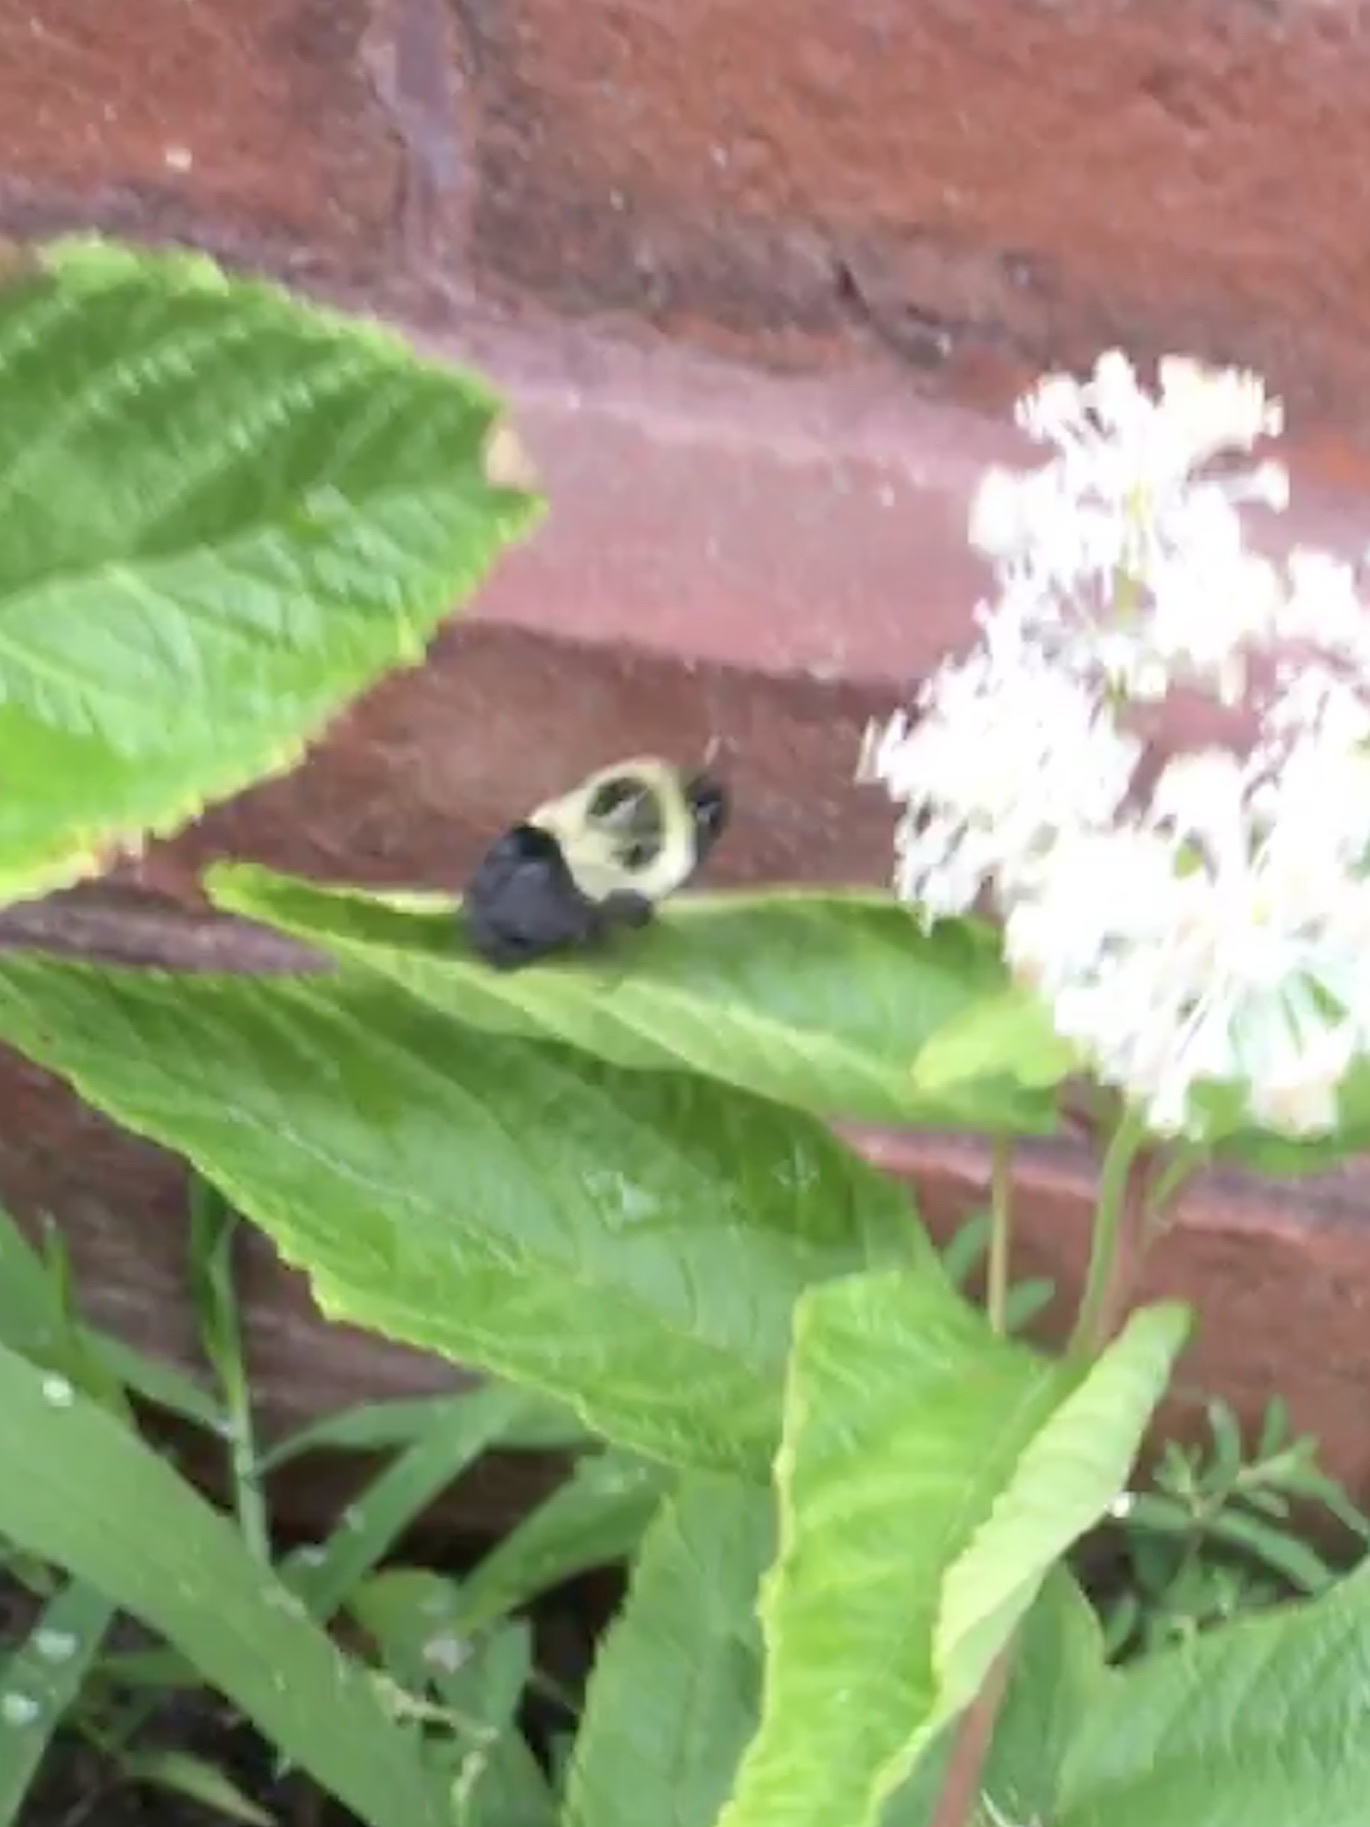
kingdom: Animalia
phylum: Arthropoda
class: Insecta
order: Hymenoptera
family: Apidae
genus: Bombus
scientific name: Bombus impatiens
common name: Common eastern bumble bee
